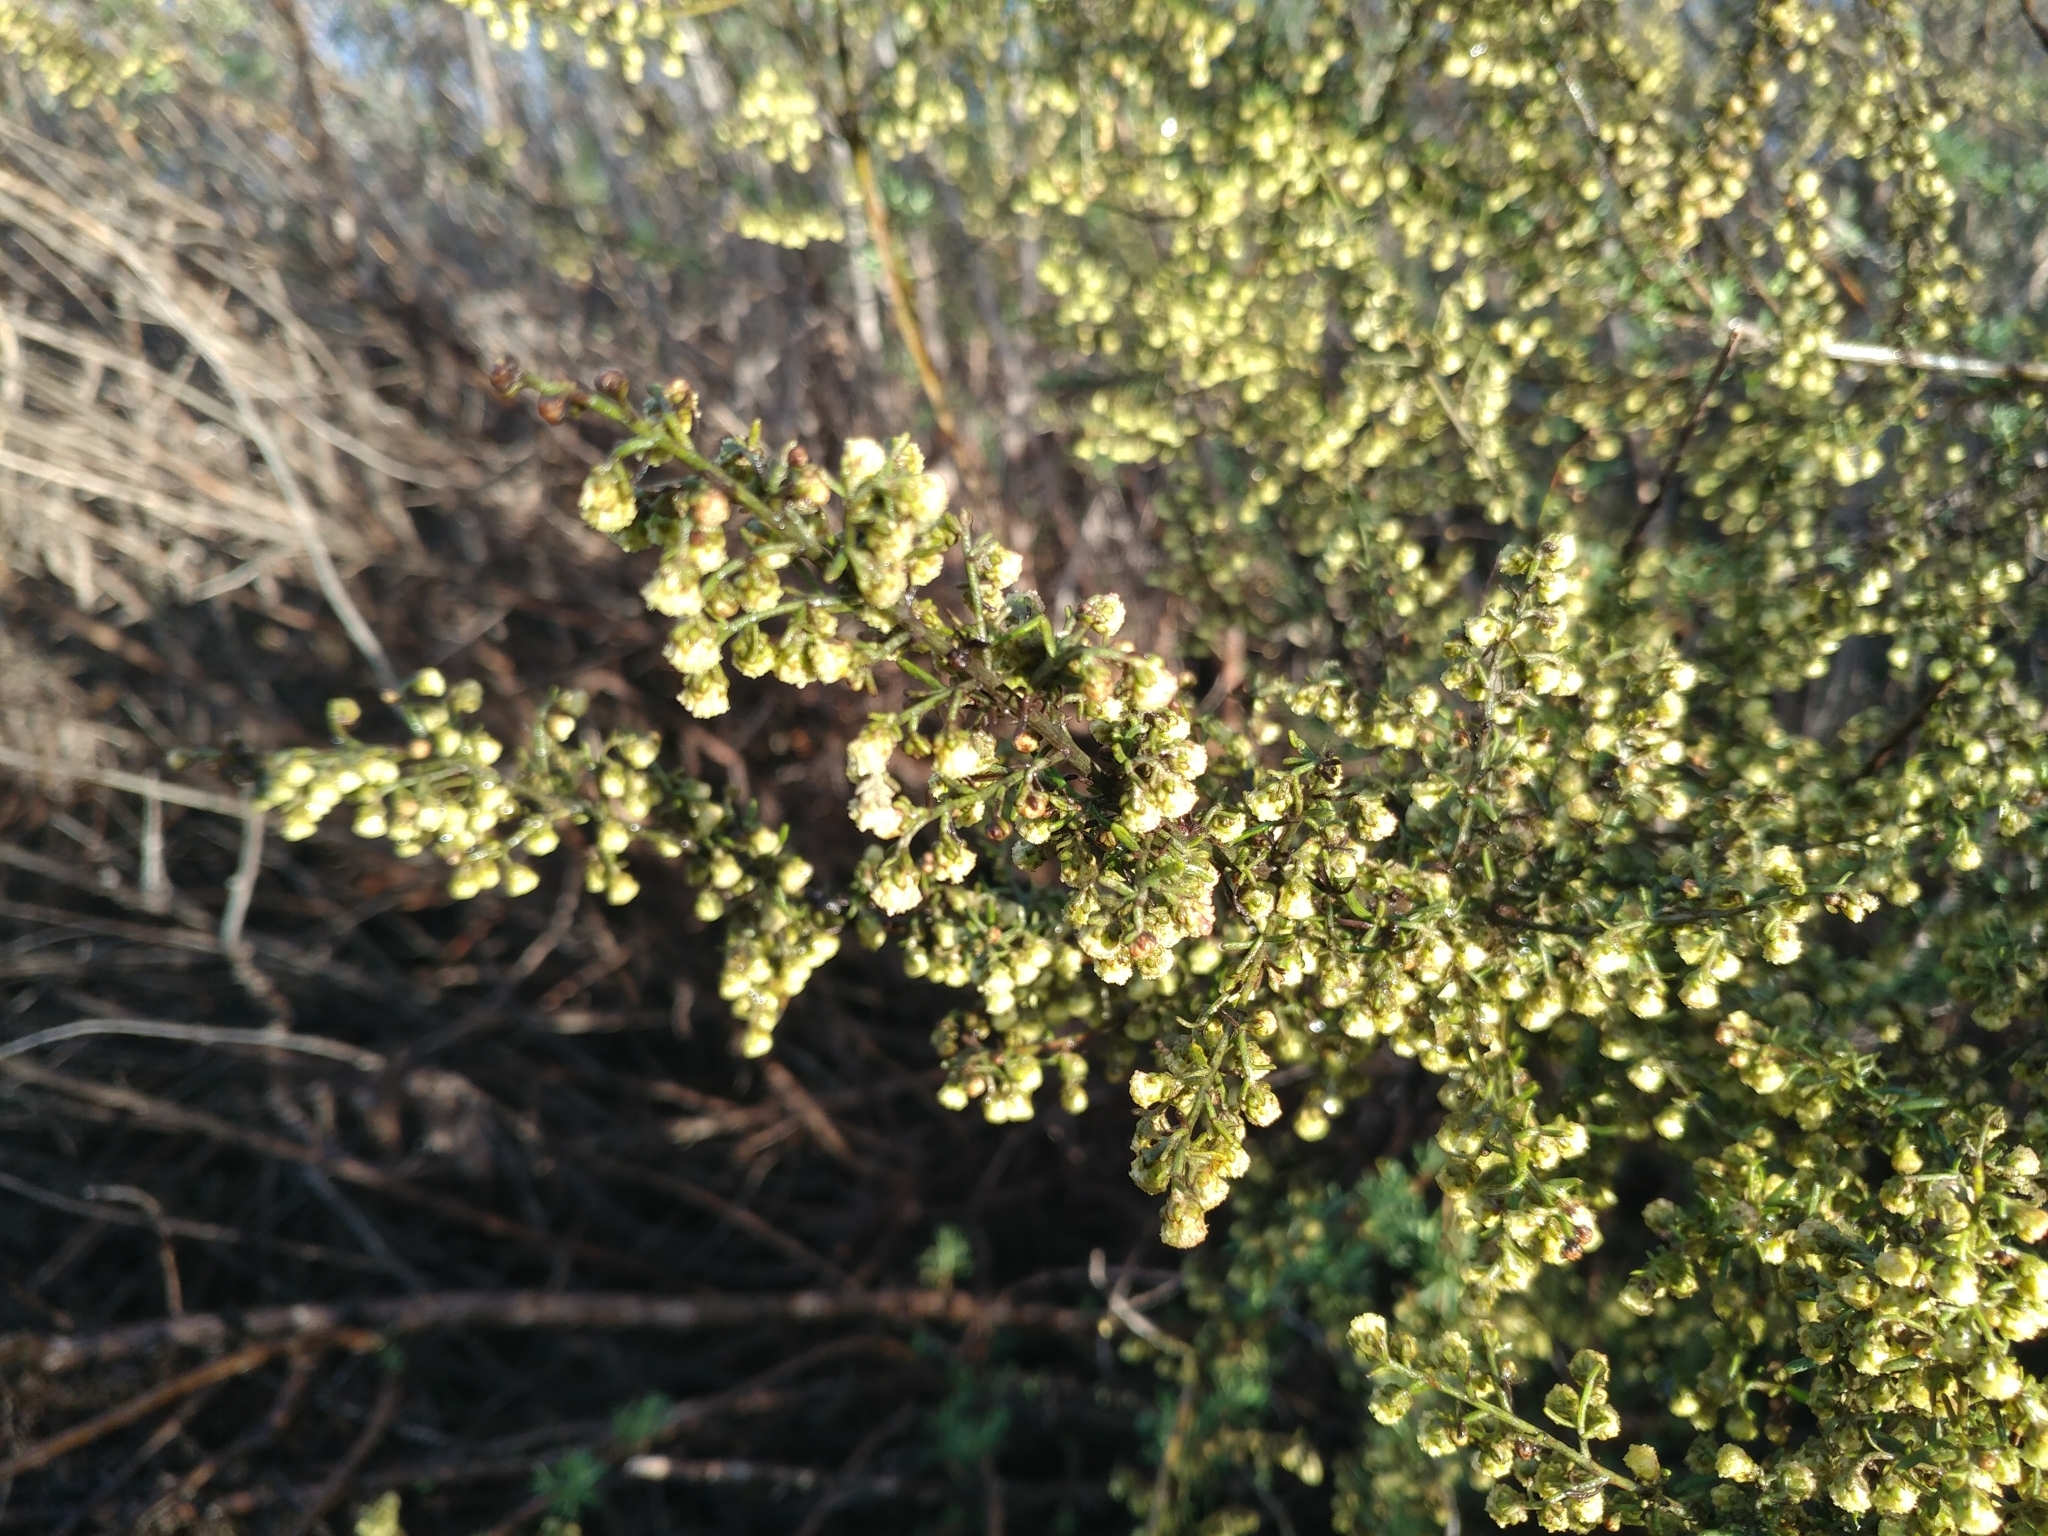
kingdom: Plantae
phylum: Tracheophyta
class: Magnoliopsida
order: Asterales
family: Asteraceae
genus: Artemisia
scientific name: Artemisia californica
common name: California sagebrush
